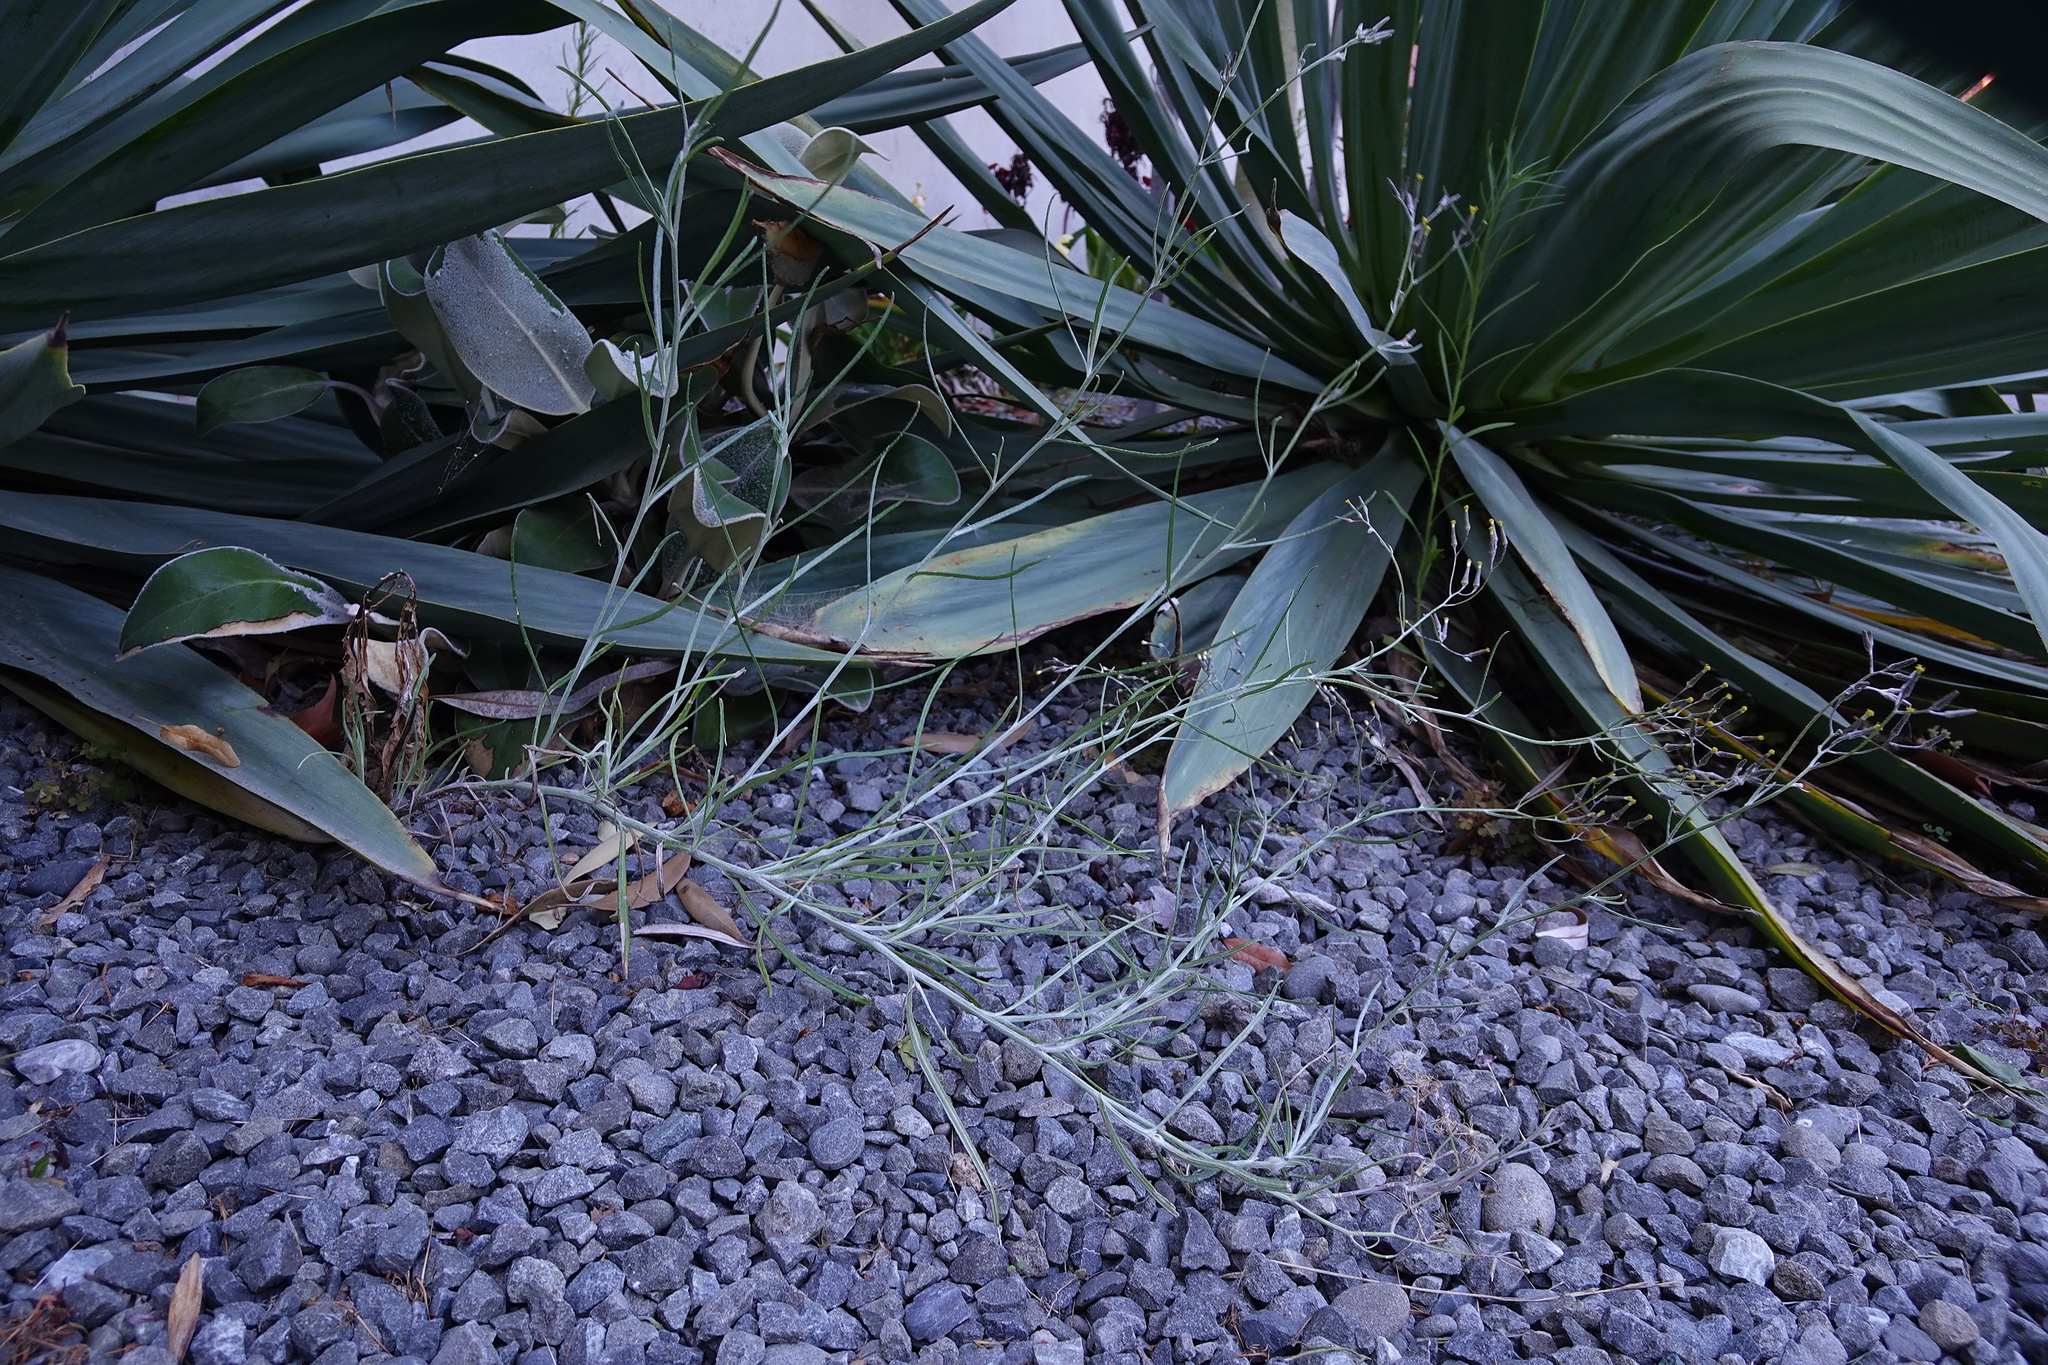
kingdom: Plantae
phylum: Tracheophyta
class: Magnoliopsida
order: Asterales
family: Asteraceae
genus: Senecio
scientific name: Senecio quadridentatus
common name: Cotton fireweed
